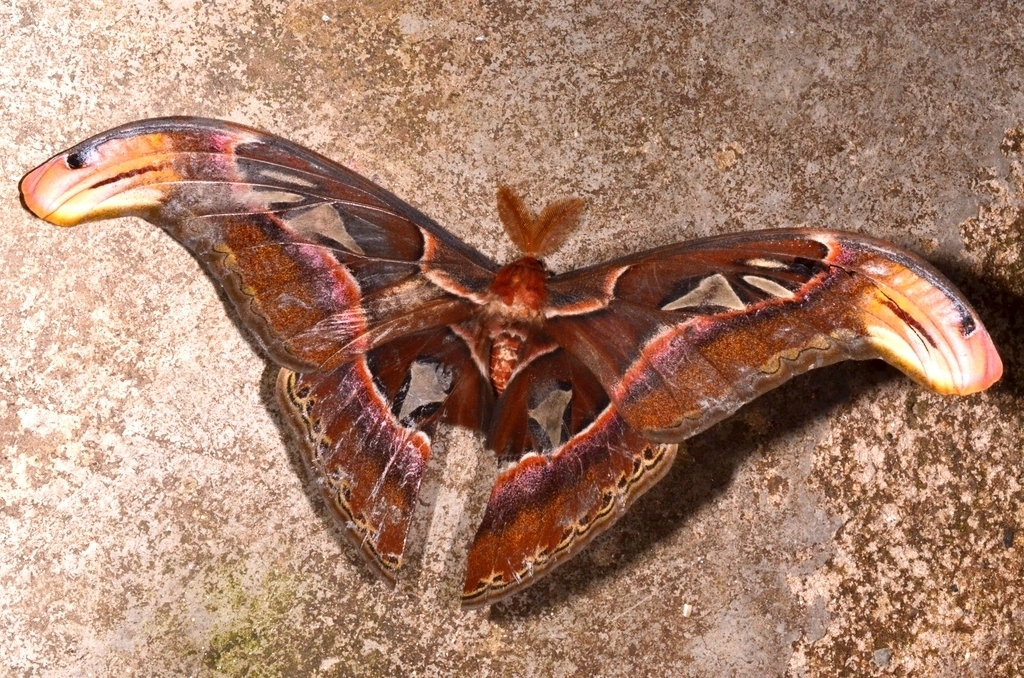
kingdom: Animalia
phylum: Arthropoda
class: Insecta
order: Lepidoptera
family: Saturniidae
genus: Attacus
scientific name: Attacus atlas
